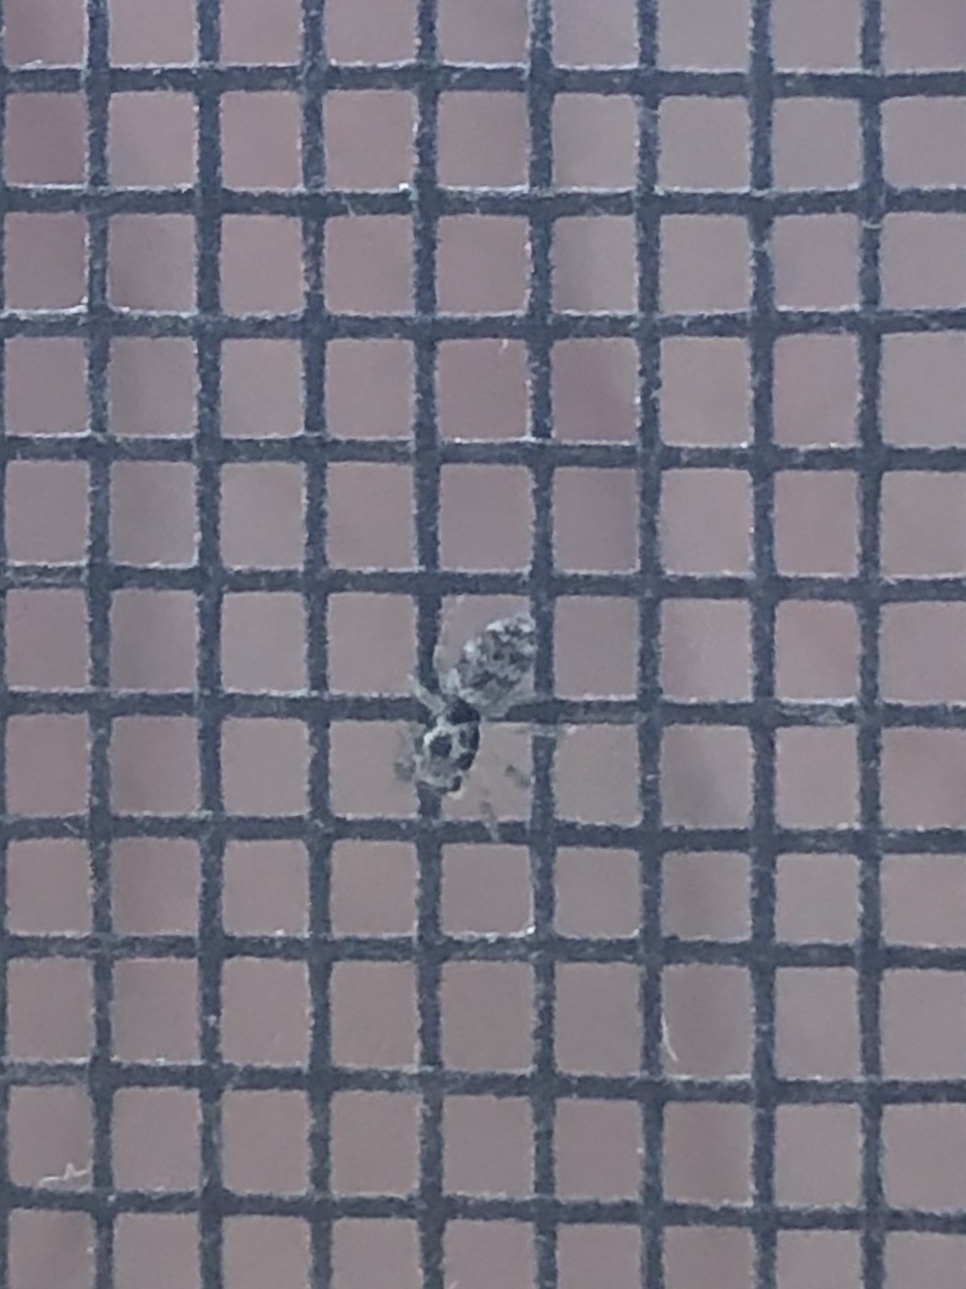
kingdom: Animalia
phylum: Arthropoda
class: Arachnida
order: Araneae
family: Salticidae
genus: Salticus
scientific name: Salticus scenicus
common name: Zebra jumper
